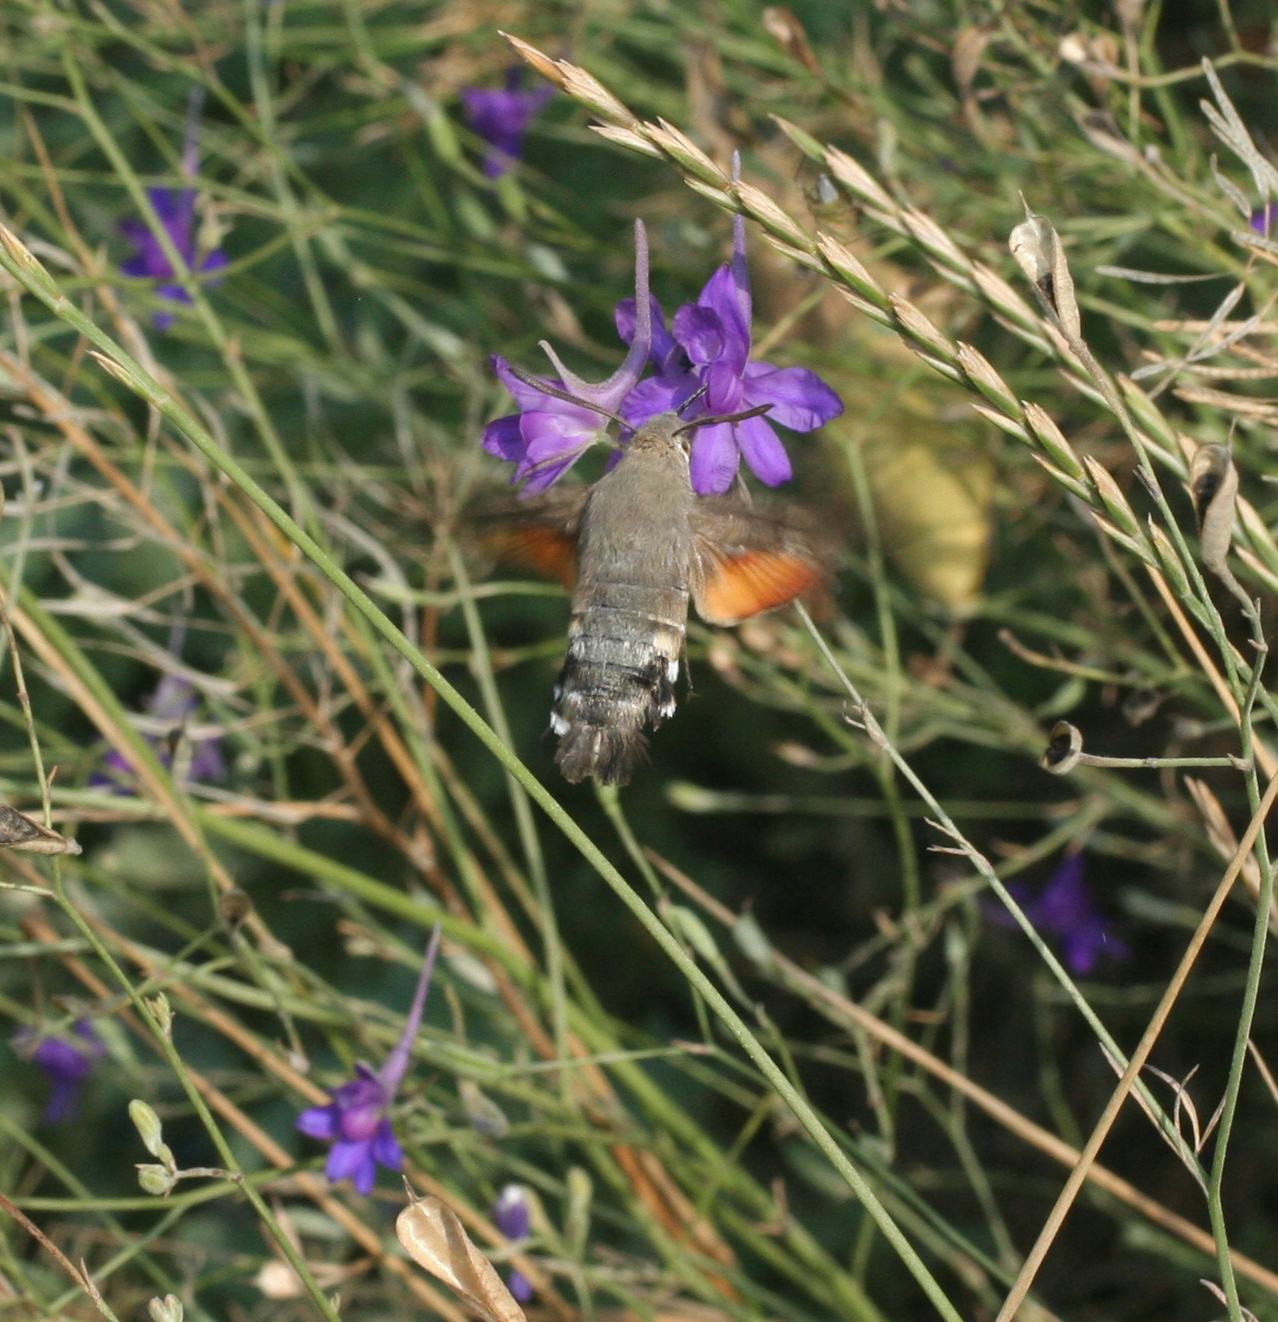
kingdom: Animalia
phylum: Arthropoda
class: Insecta
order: Lepidoptera
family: Sphingidae
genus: Macroglossum
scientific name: Macroglossum stellatarum
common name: Humming-bird hawk-moth
